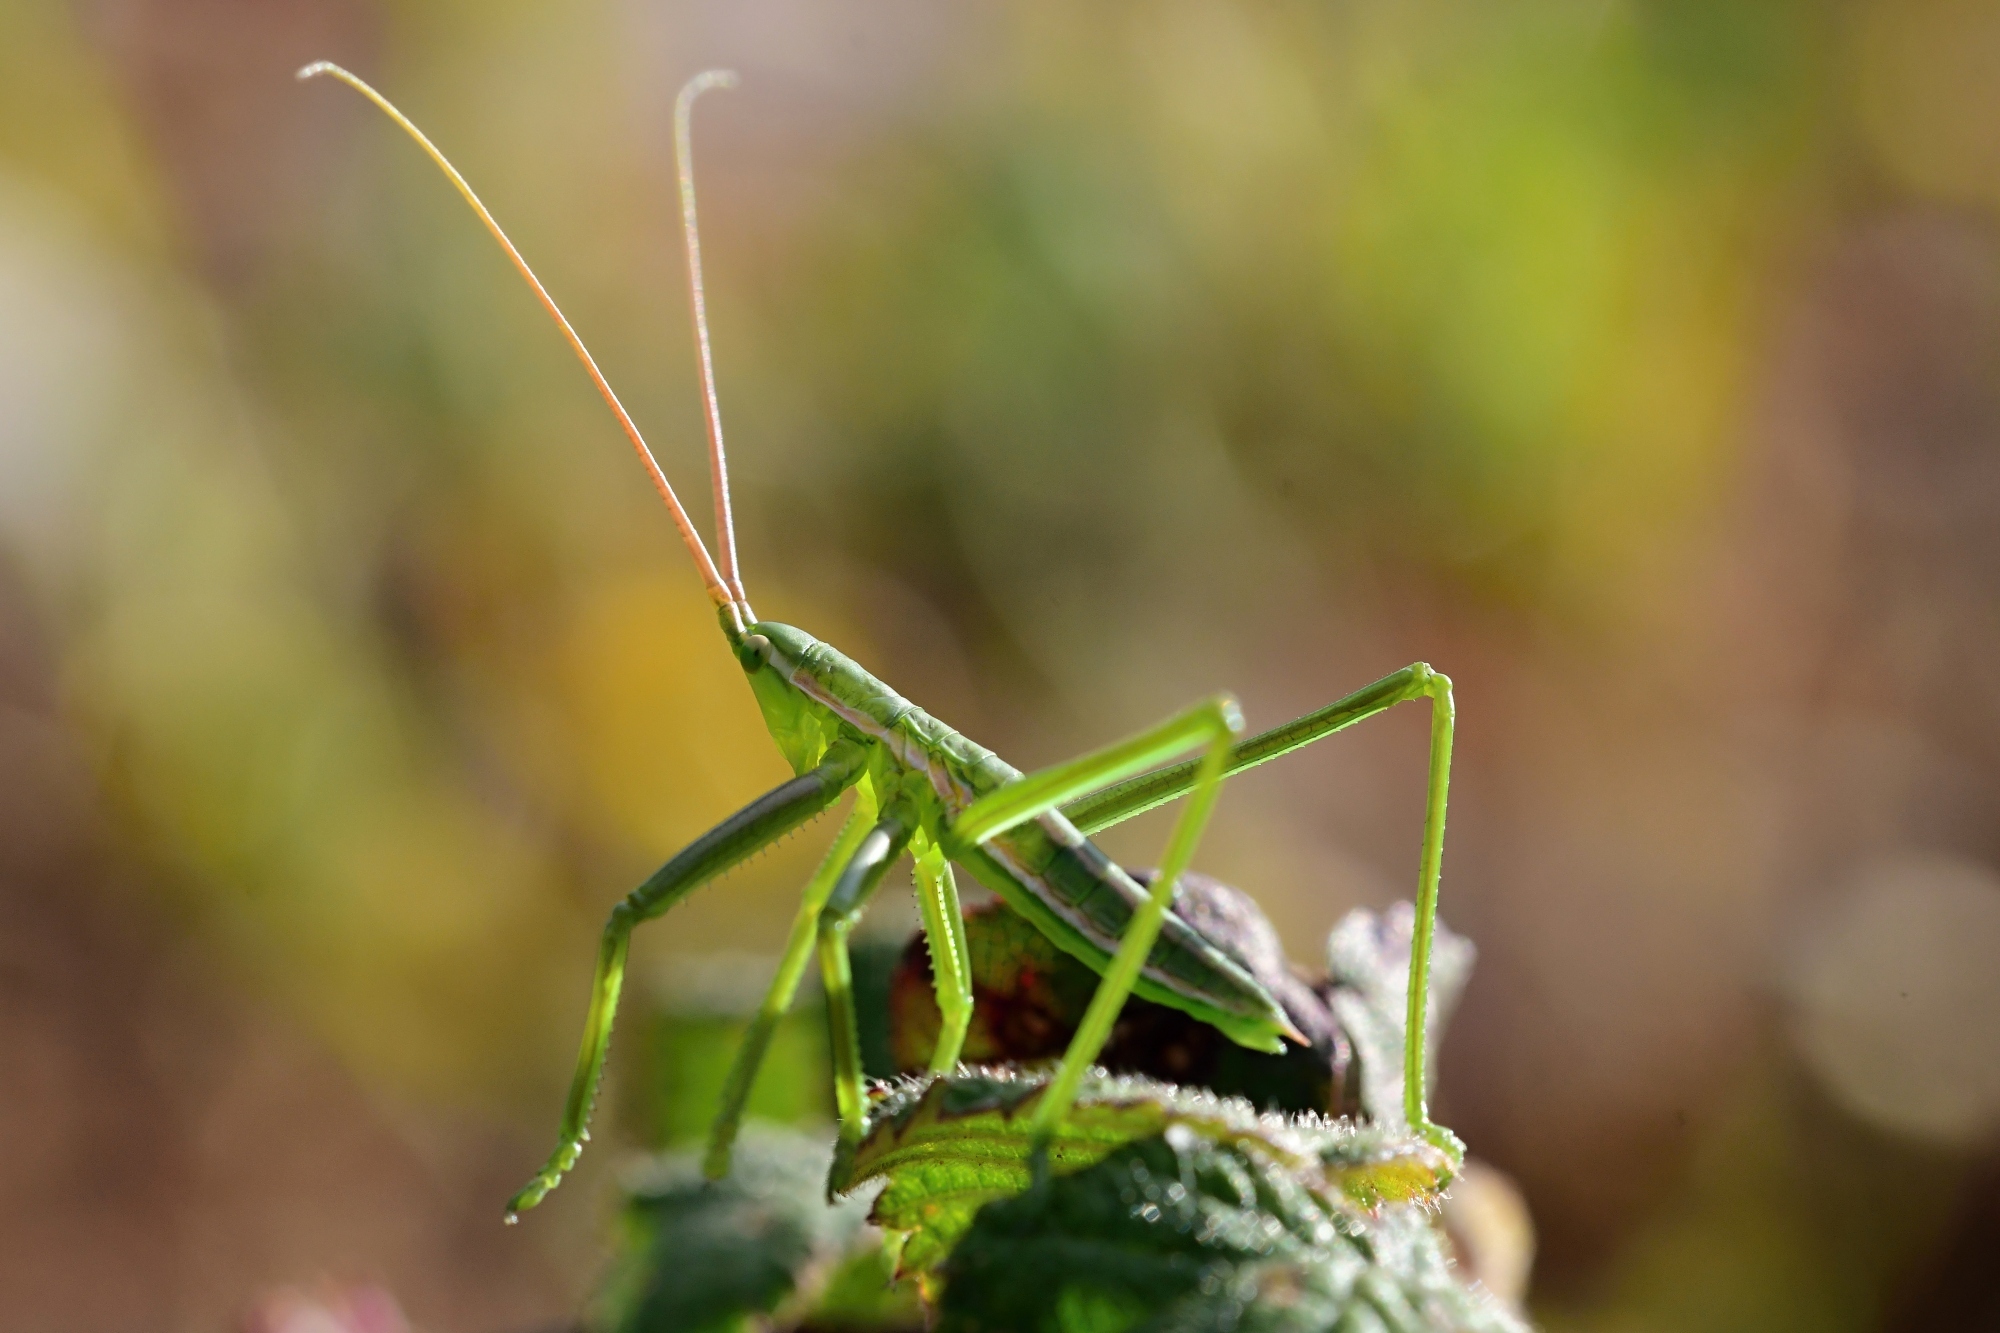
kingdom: Animalia
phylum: Arthropoda
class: Insecta
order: Orthoptera
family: Tettigoniidae
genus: Saga
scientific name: Saga hellenica
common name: Greek predatory bush-cricket
